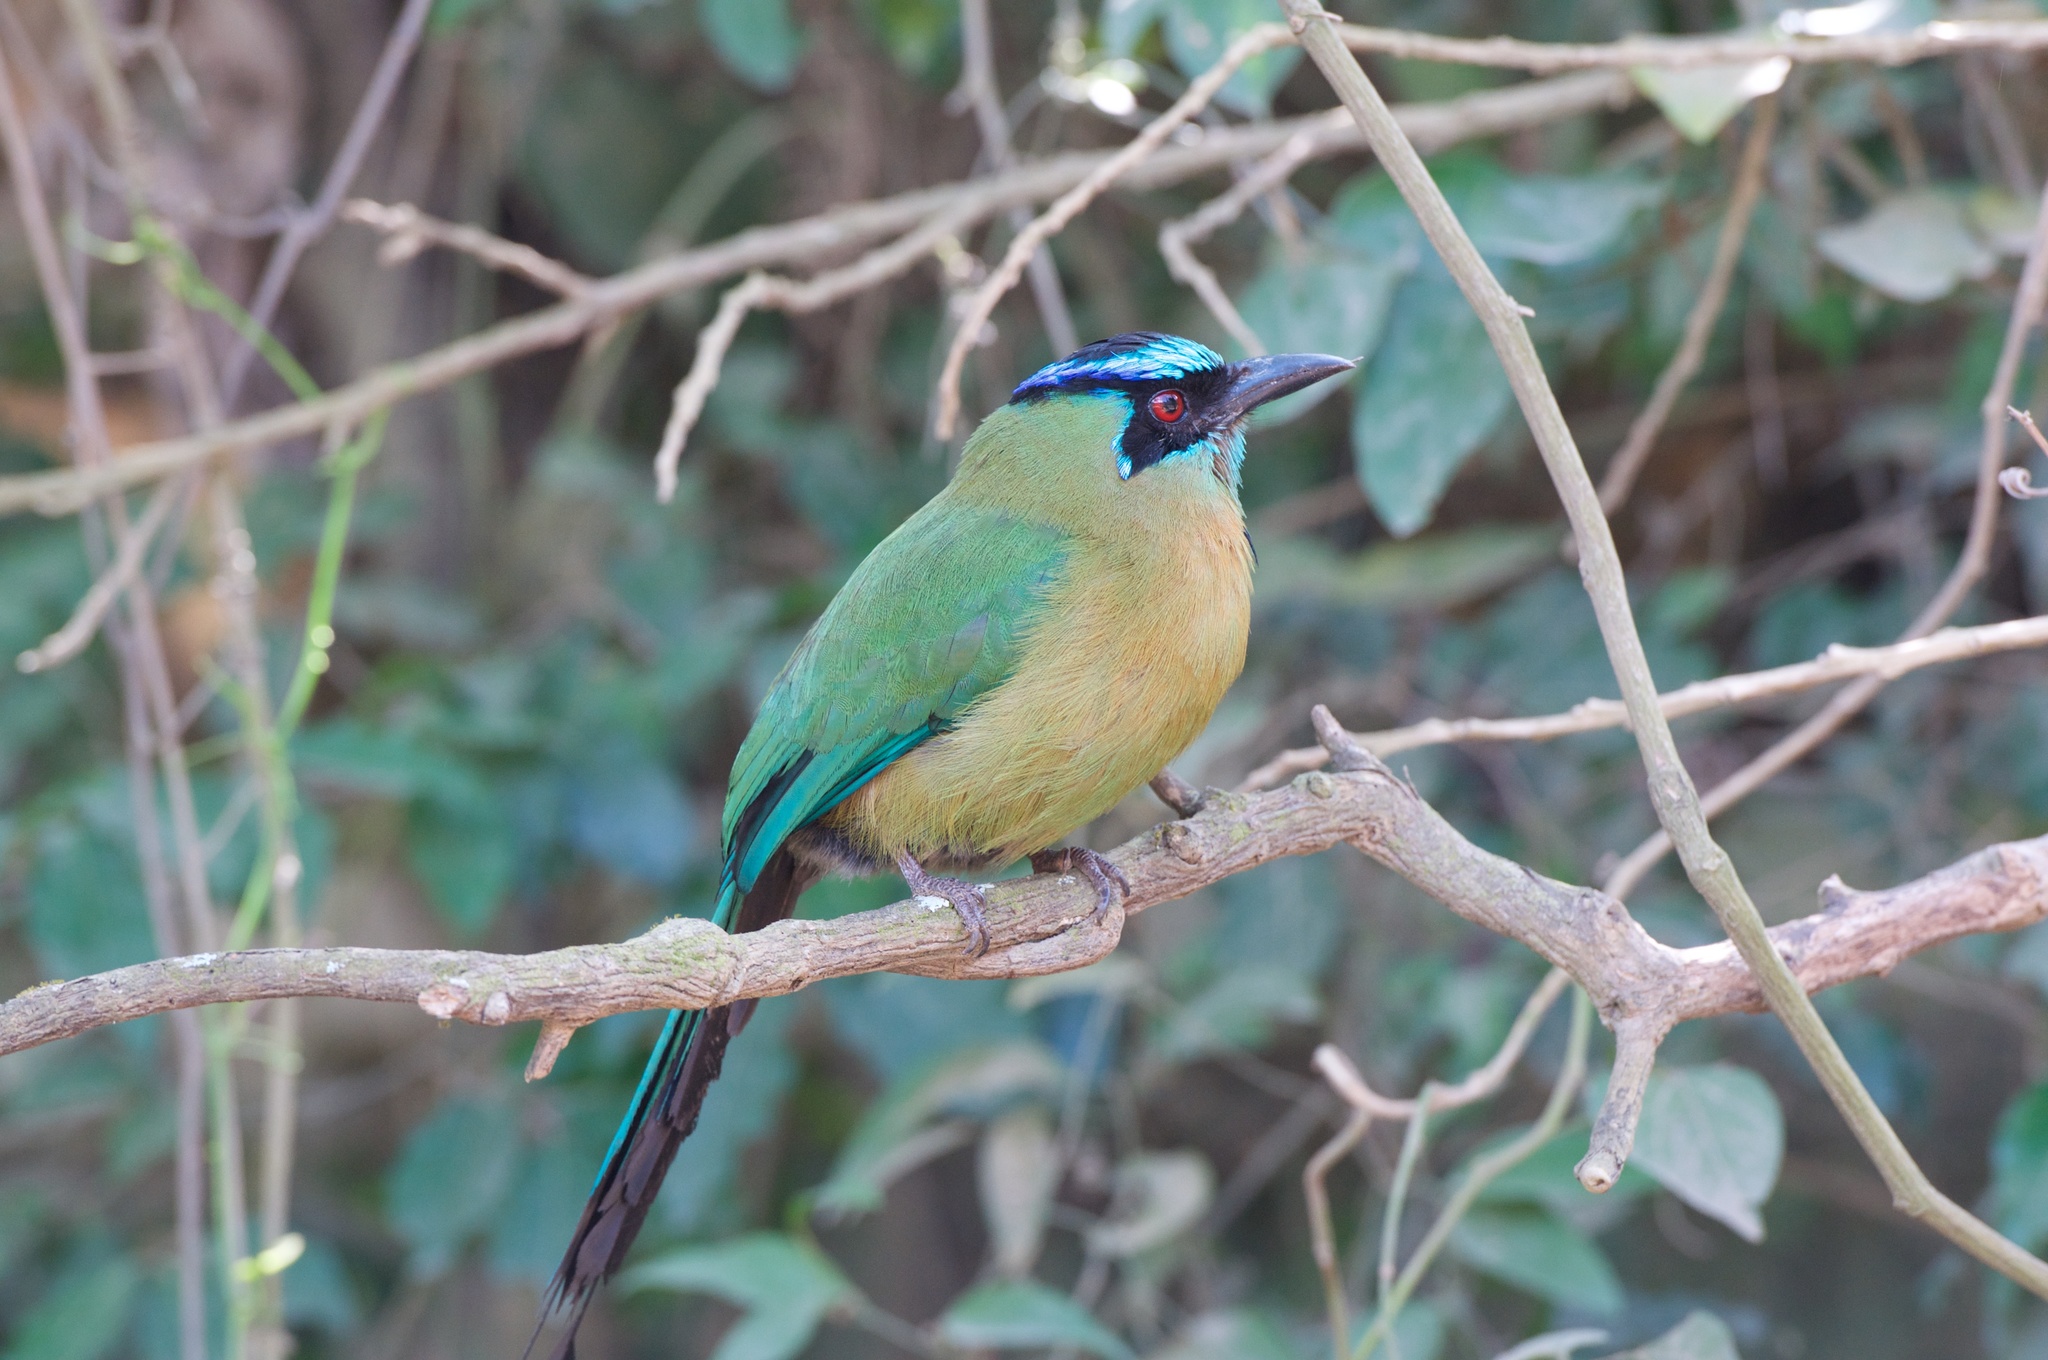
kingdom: Animalia
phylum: Chordata
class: Aves
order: Coraciiformes
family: Momotidae
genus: Momotus
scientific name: Momotus lessonii
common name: Lesson's motmot
